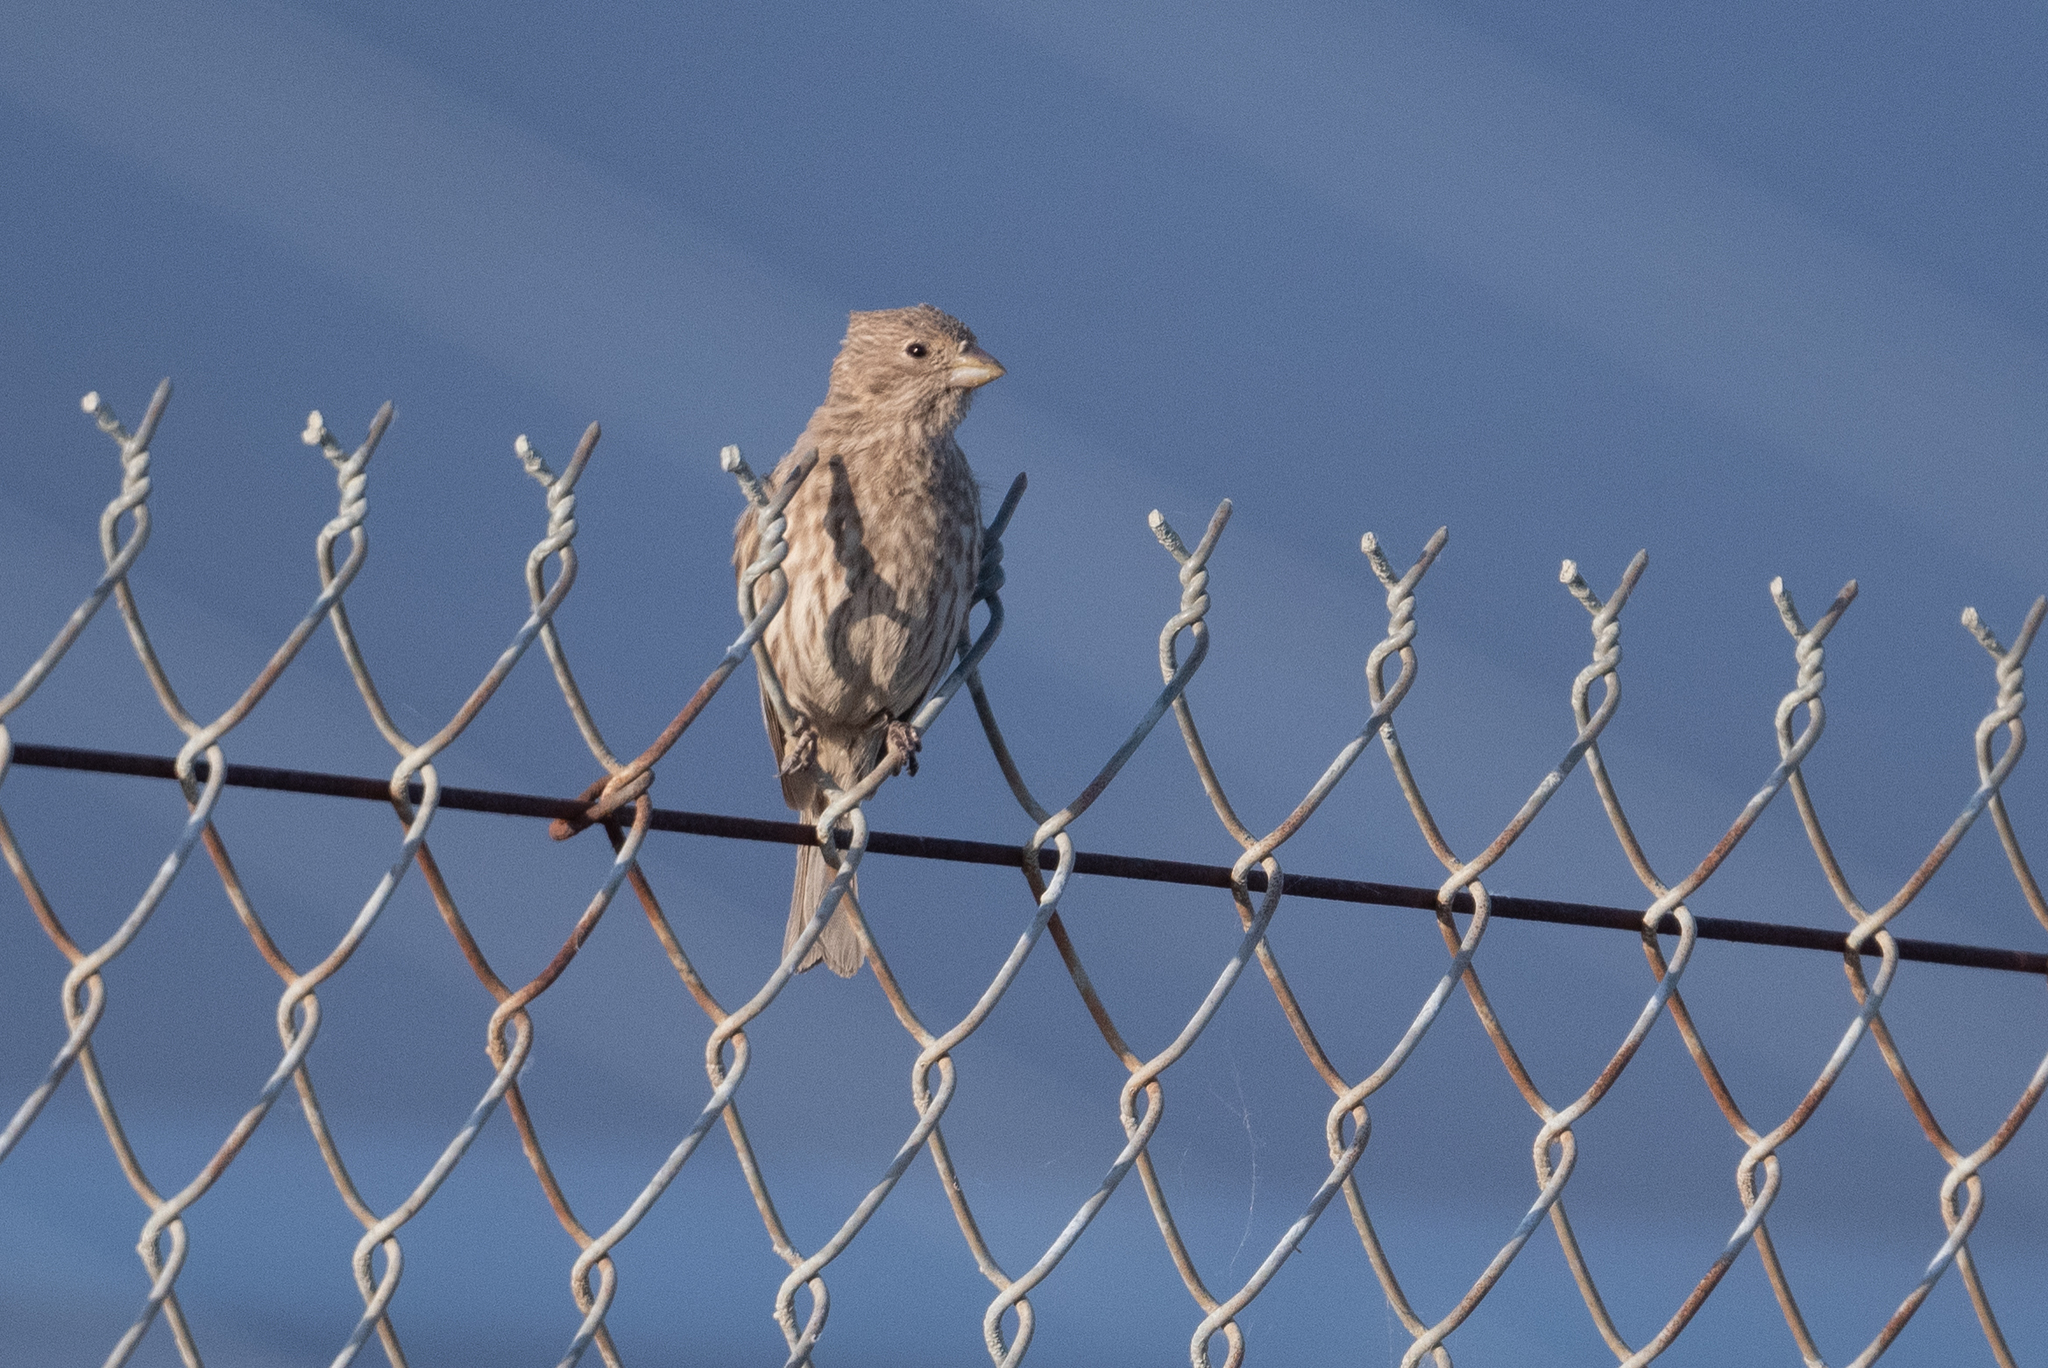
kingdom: Animalia
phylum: Chordata
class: Aves
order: Passeriformes
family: Fringillidae
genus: Haemorhous
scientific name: Haemorhous mexicanus
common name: House finch
